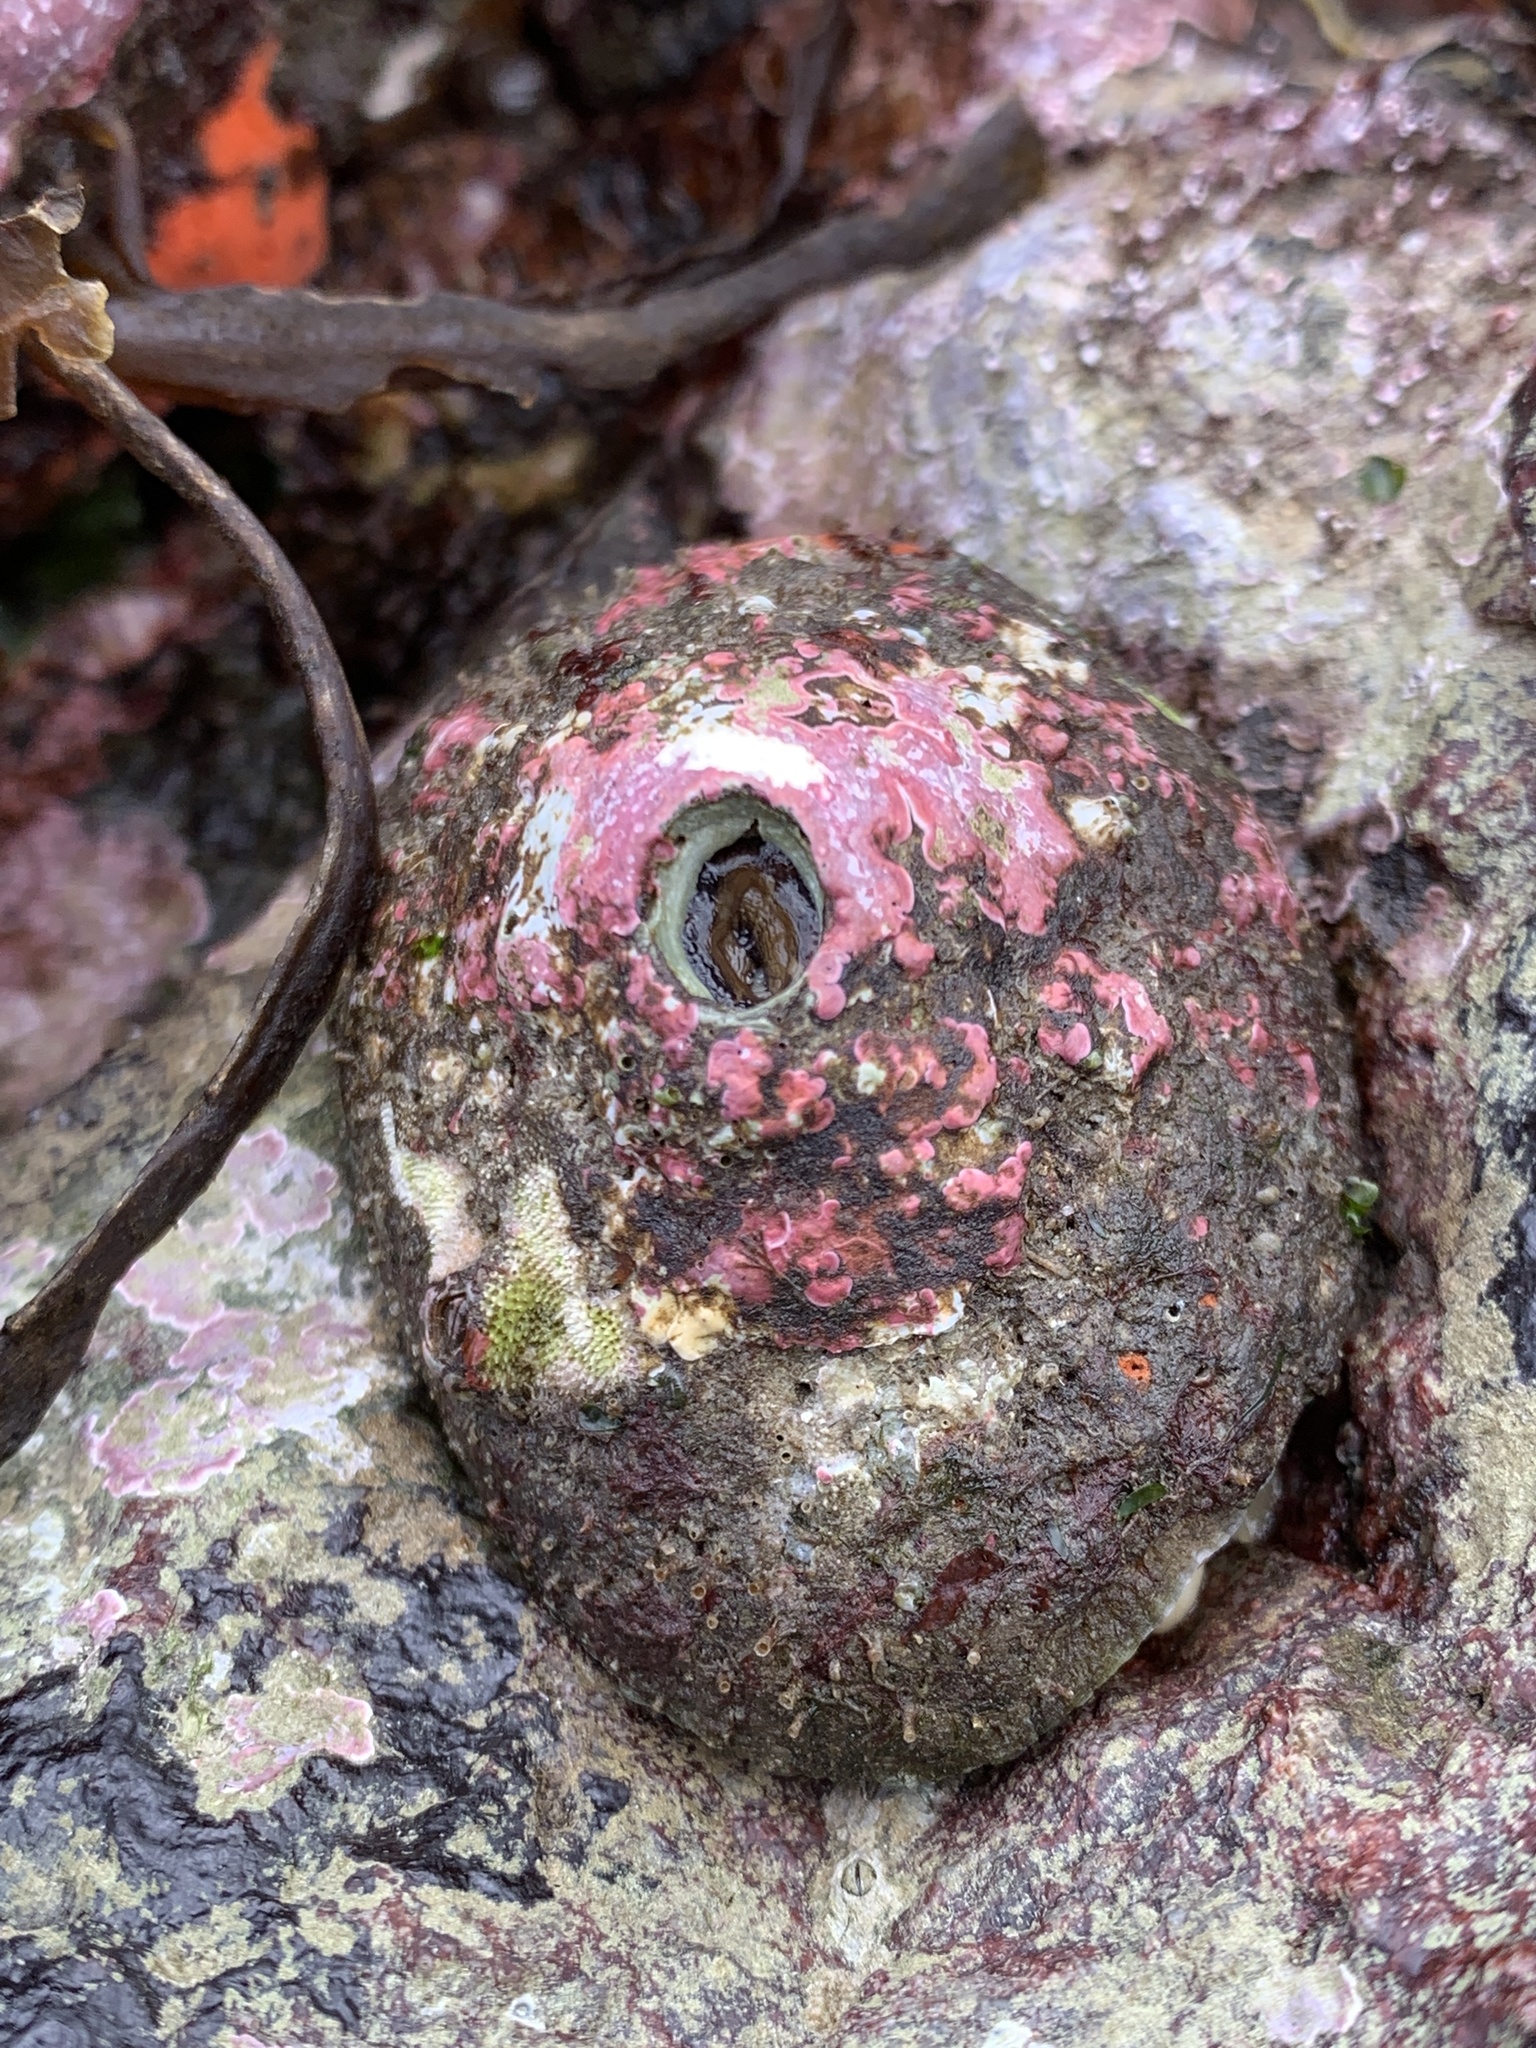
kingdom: Animalia
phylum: Mollusca
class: Gastropoda
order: Lepetellida
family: Fissurellidae
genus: Diodora
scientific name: Diodora aspera
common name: Rough keyhole limpet
